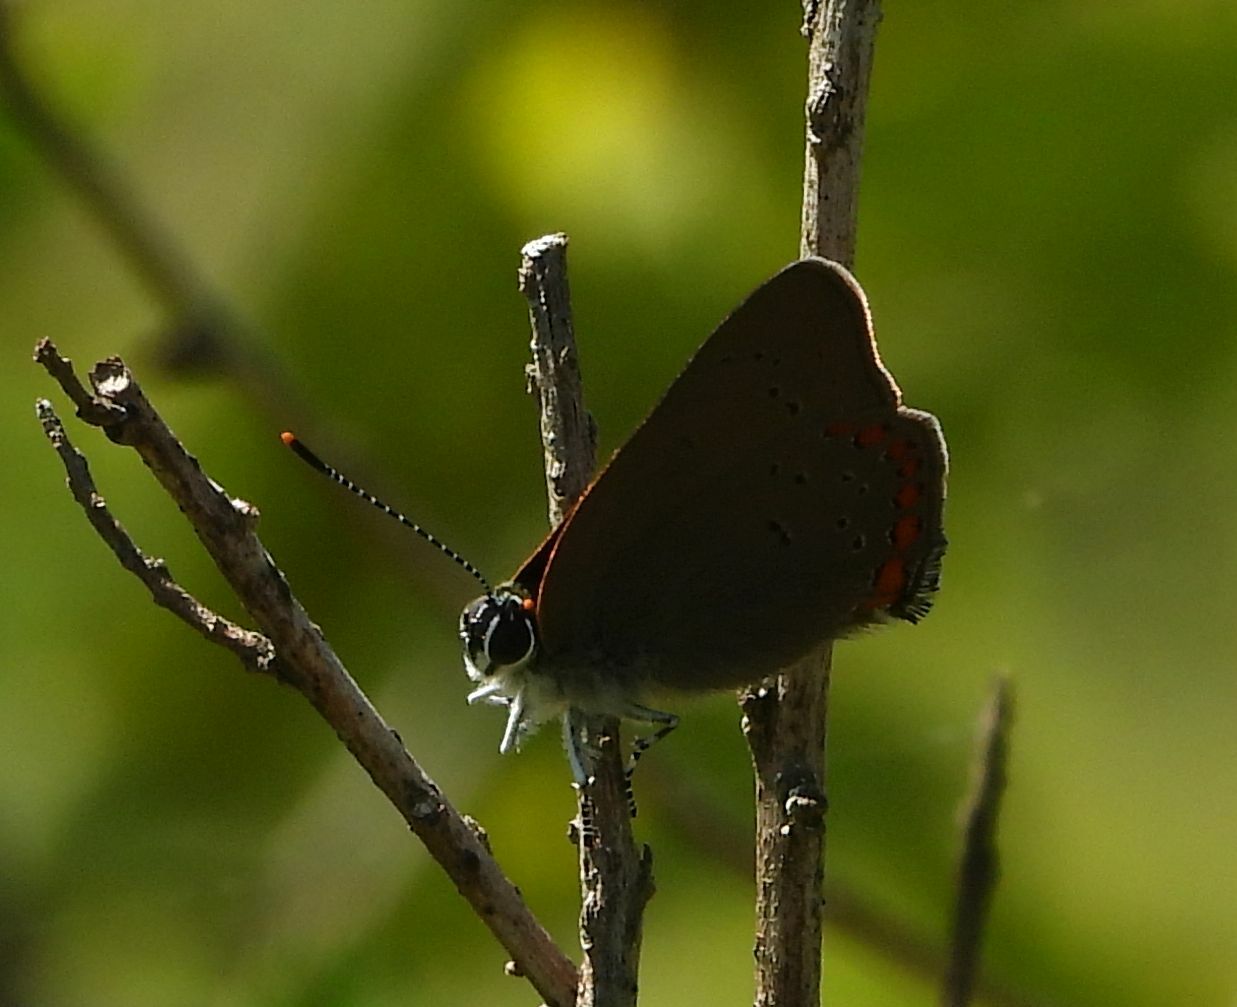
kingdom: Animalia
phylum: Arthropoda
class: Insecta
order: Lepidoptera
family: Lycaenidae
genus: Harkenclenus
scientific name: Harkenclenus titus
